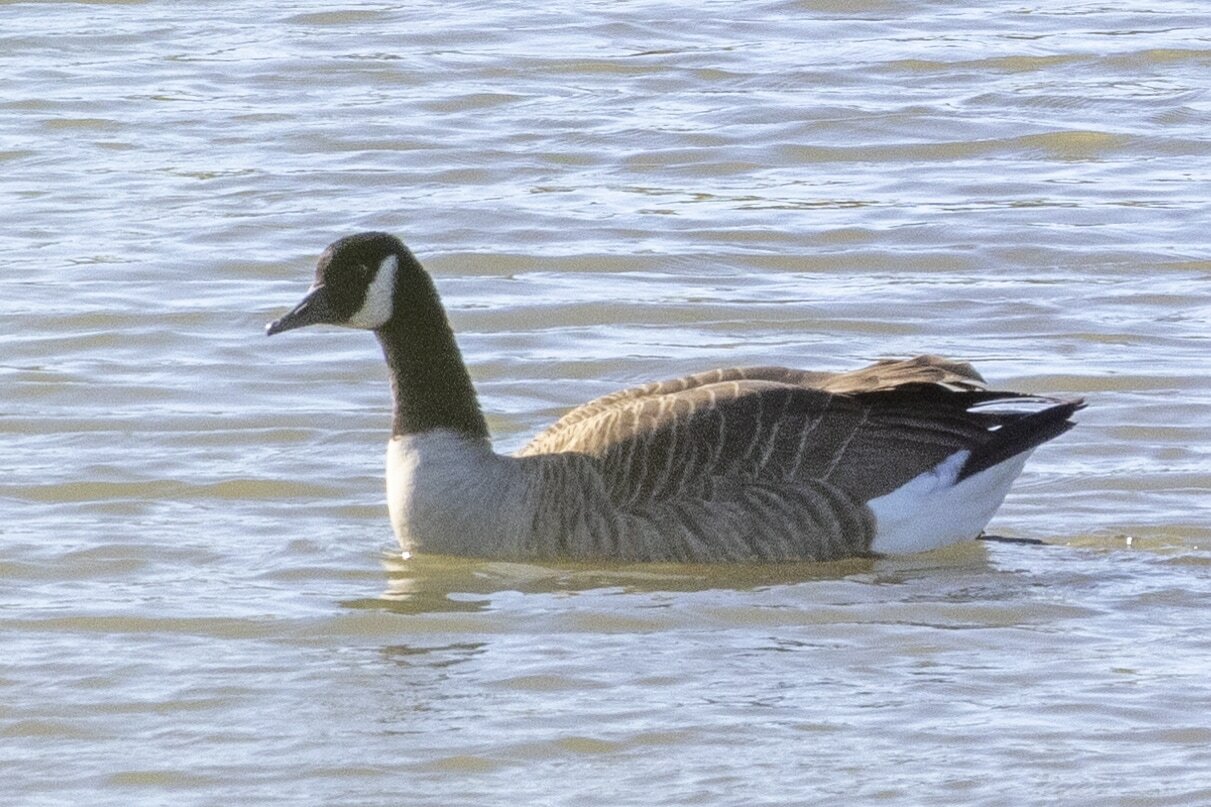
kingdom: Animalia
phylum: Chordata
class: Aves
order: Anseriformes
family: Anatidae
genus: Branta
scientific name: Branta canadensis
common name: Canada goose
